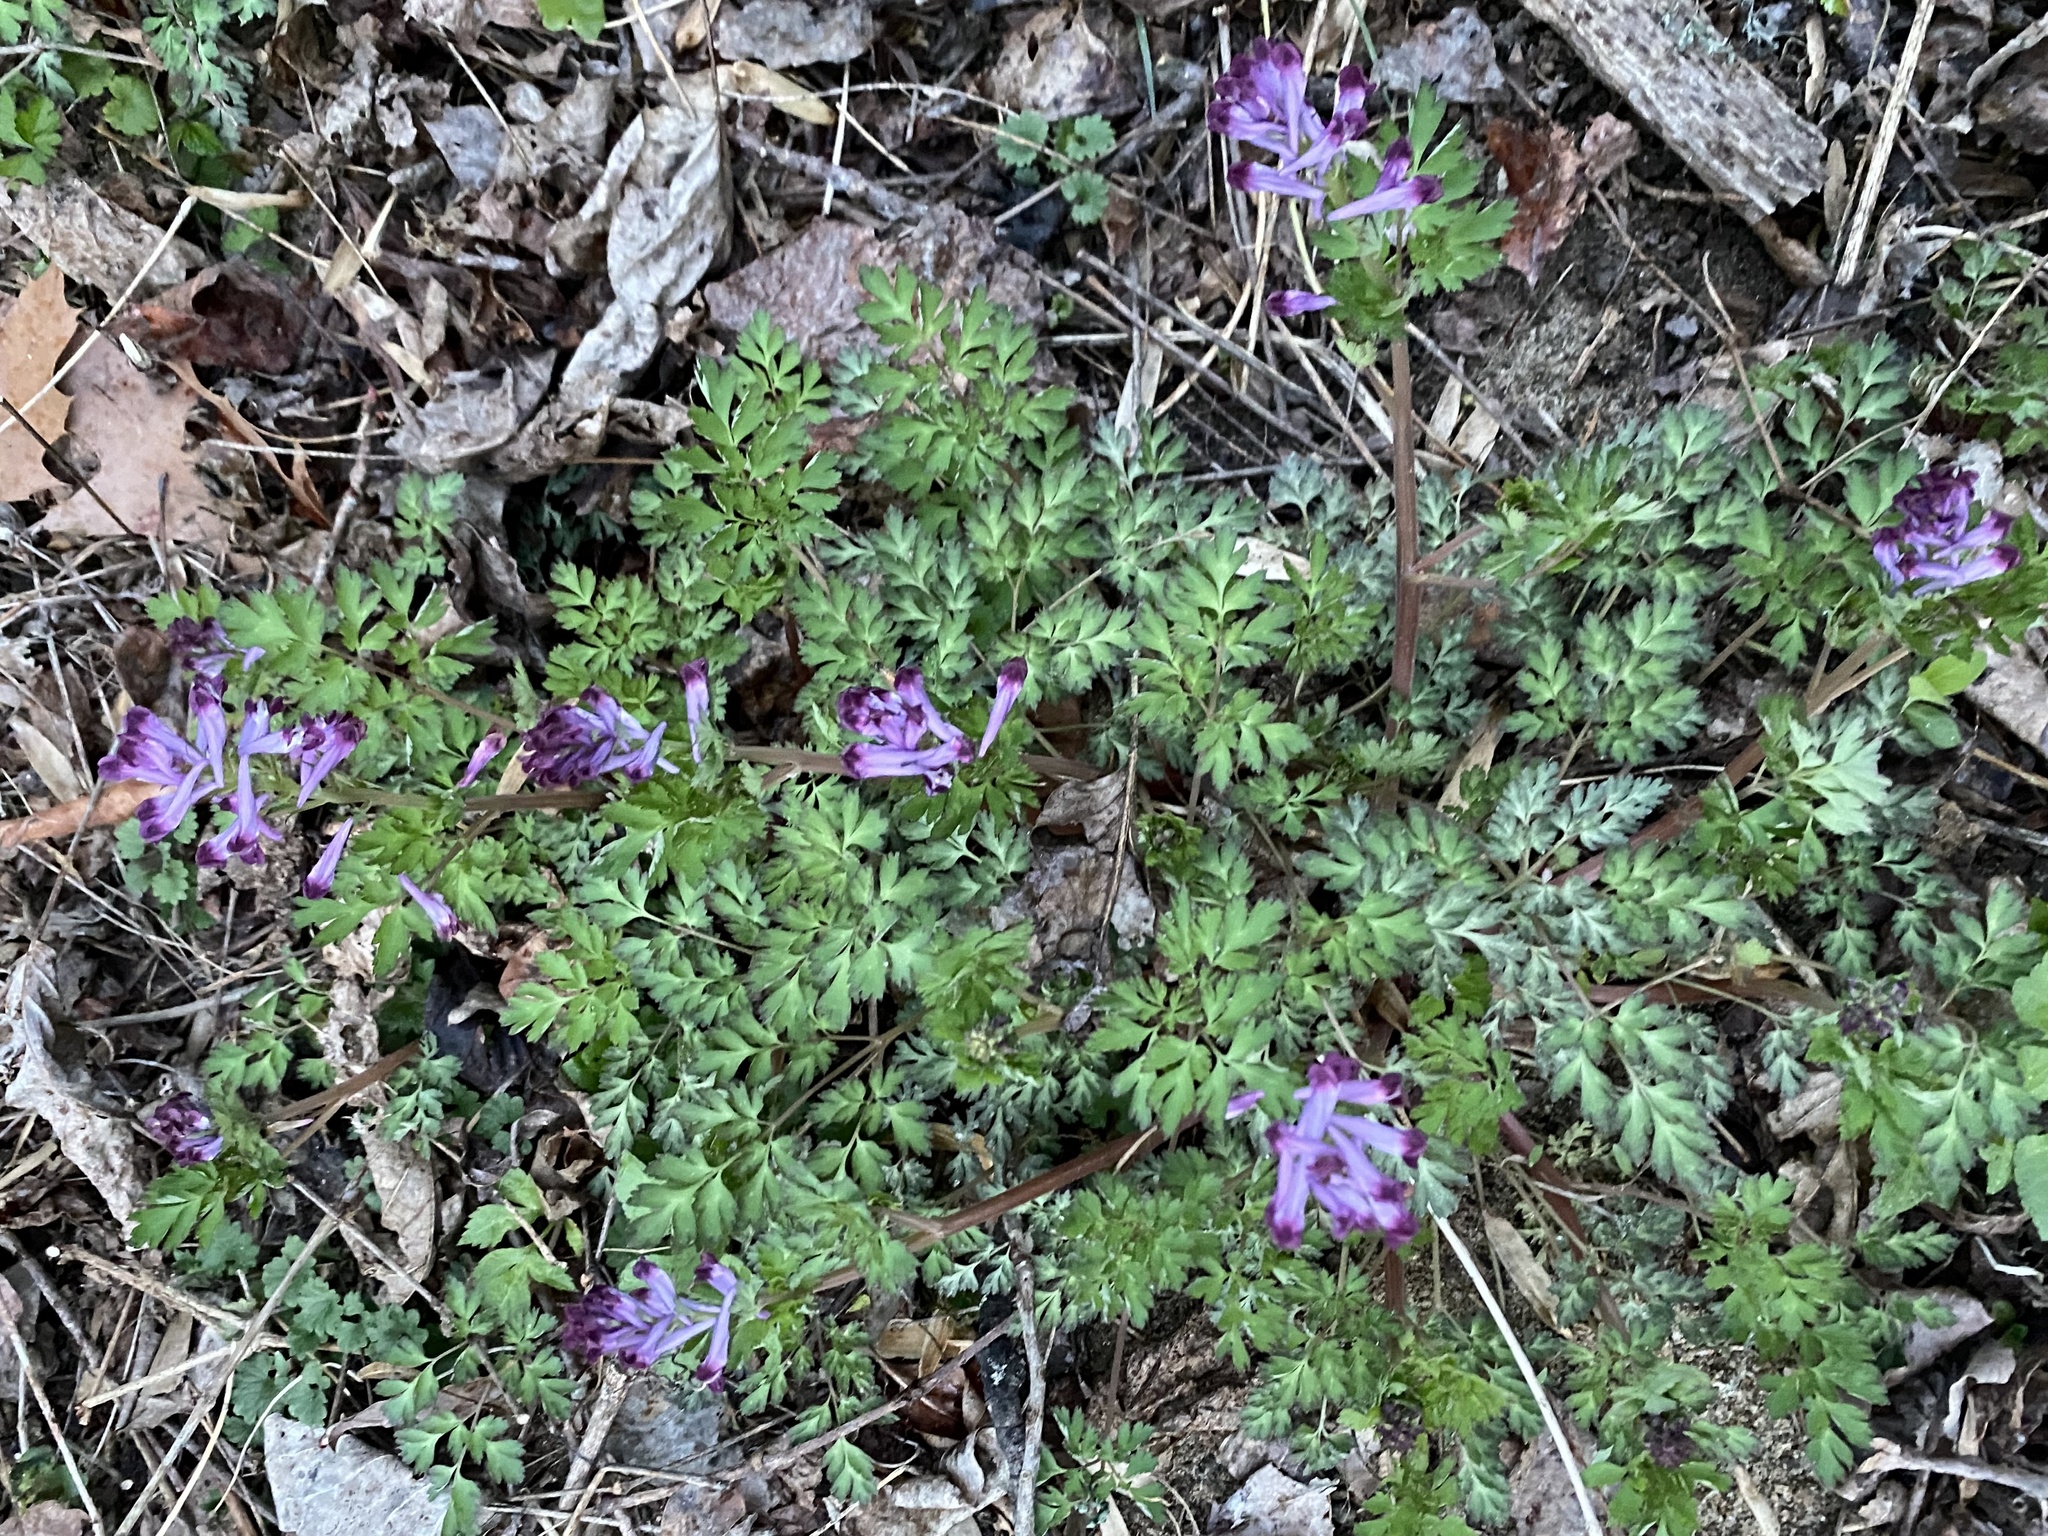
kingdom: Plantae
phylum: Tracheophyta
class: Magnoliopsida
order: Ranunculales
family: Papaveraceae
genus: Corydalis
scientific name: Corydalis incisa
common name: Incised fumewort
